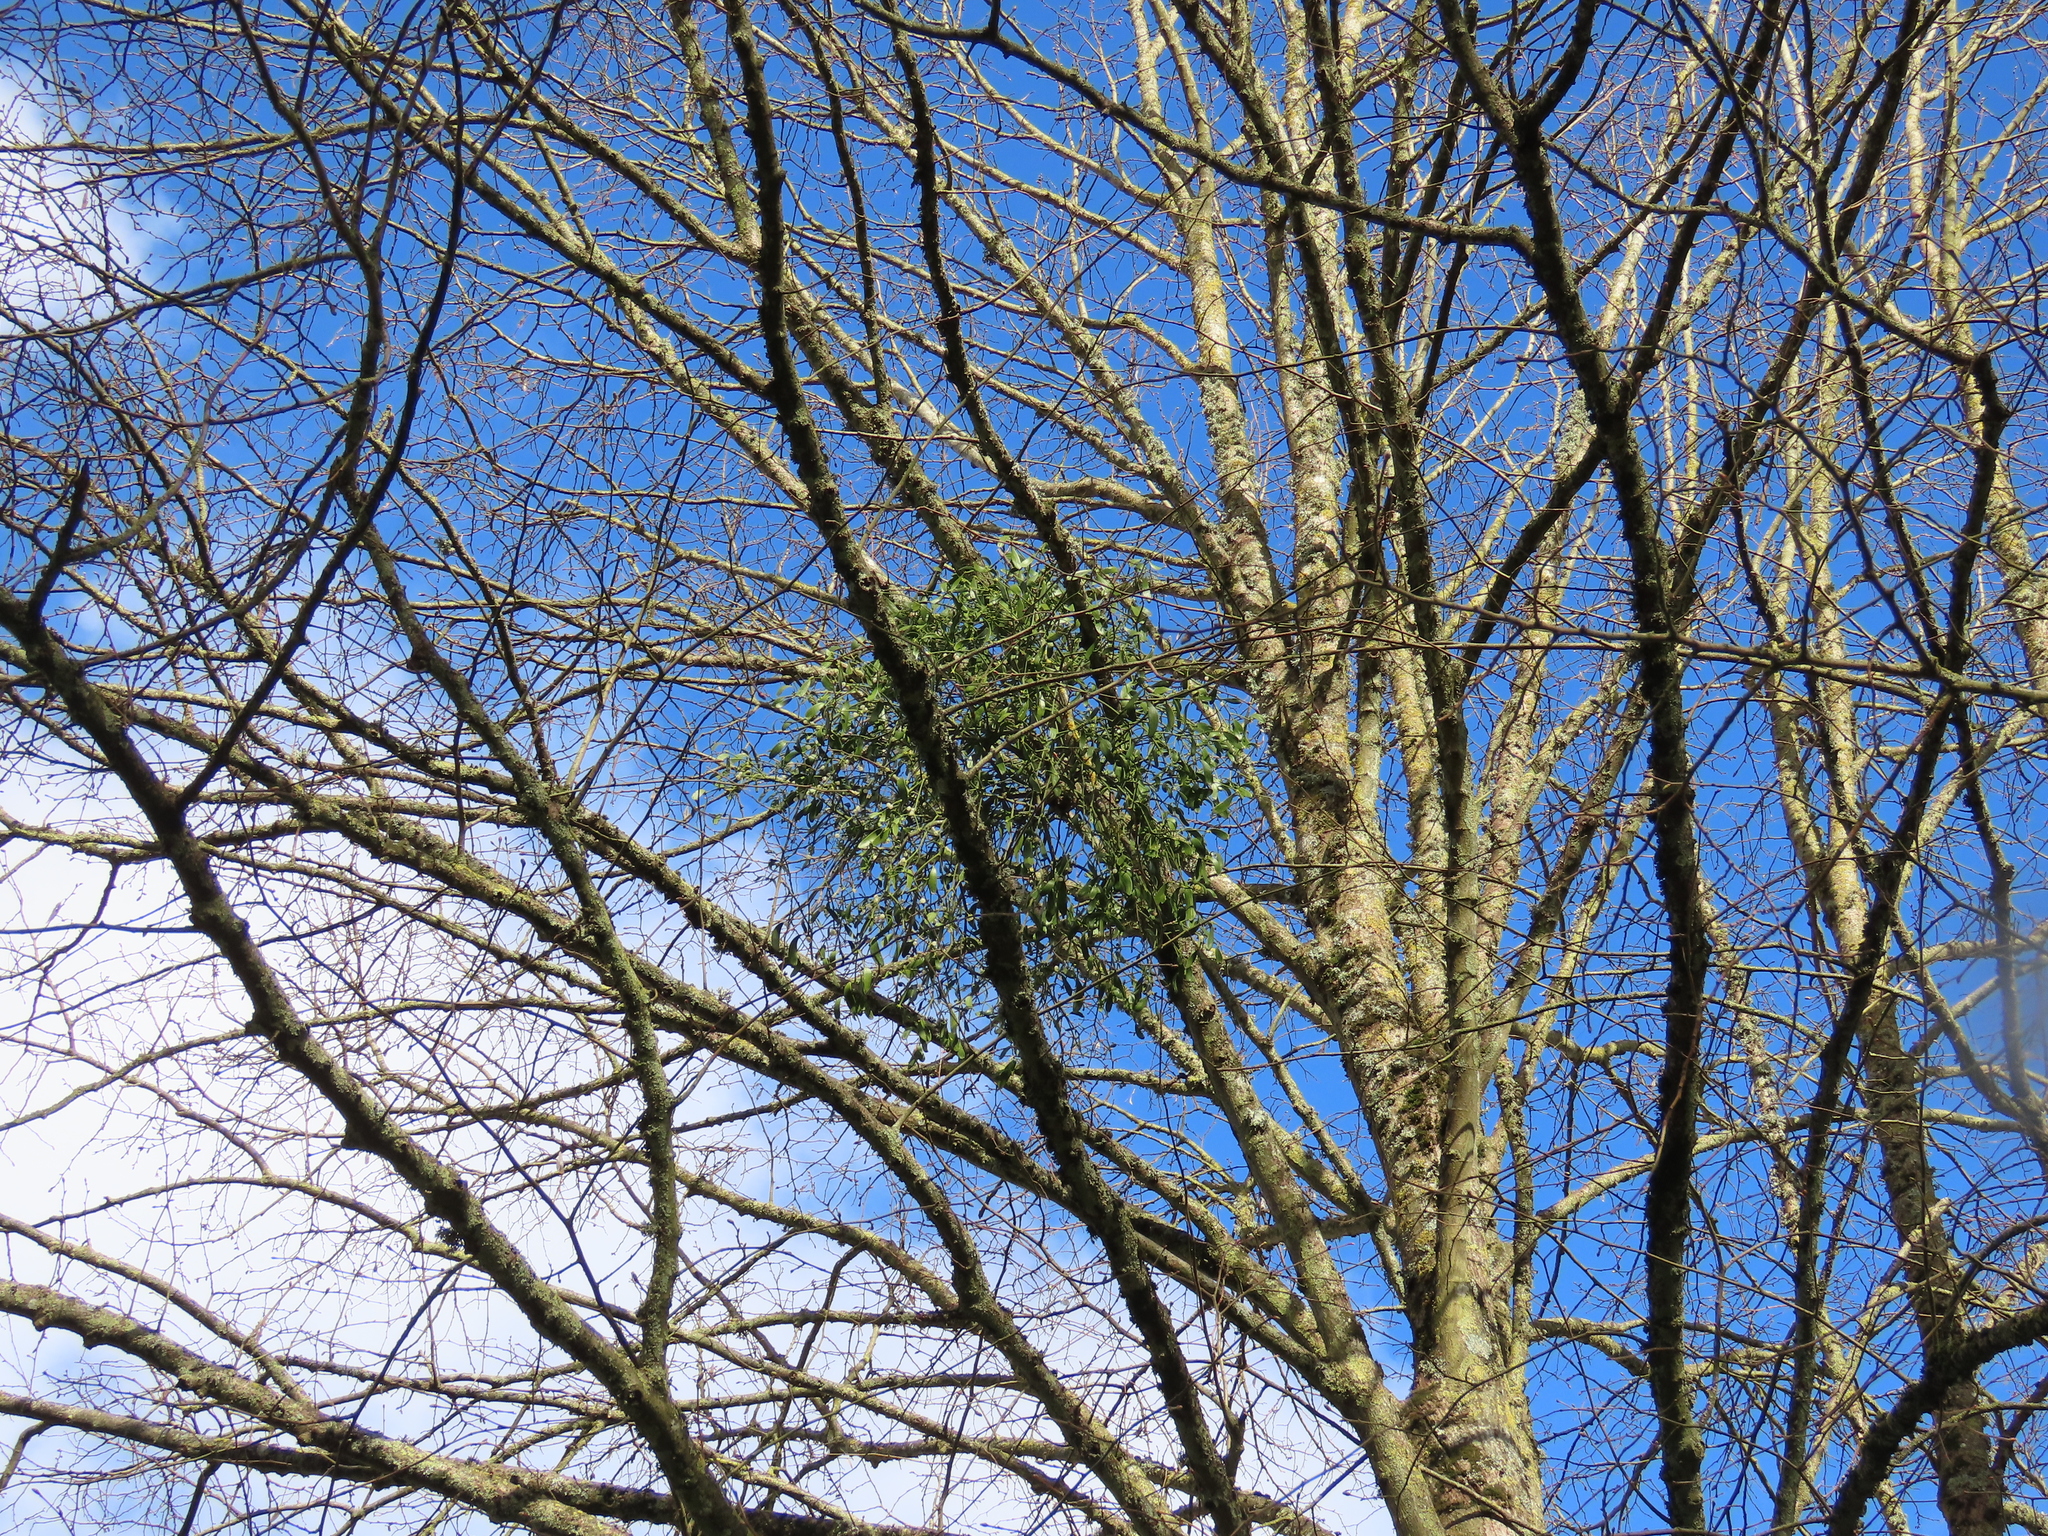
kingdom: Plantae
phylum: Tracheophyta
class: Magnoliopsida
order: Santalales
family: Viscaceae
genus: Viscum
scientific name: Viscum album
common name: Mistletoe
